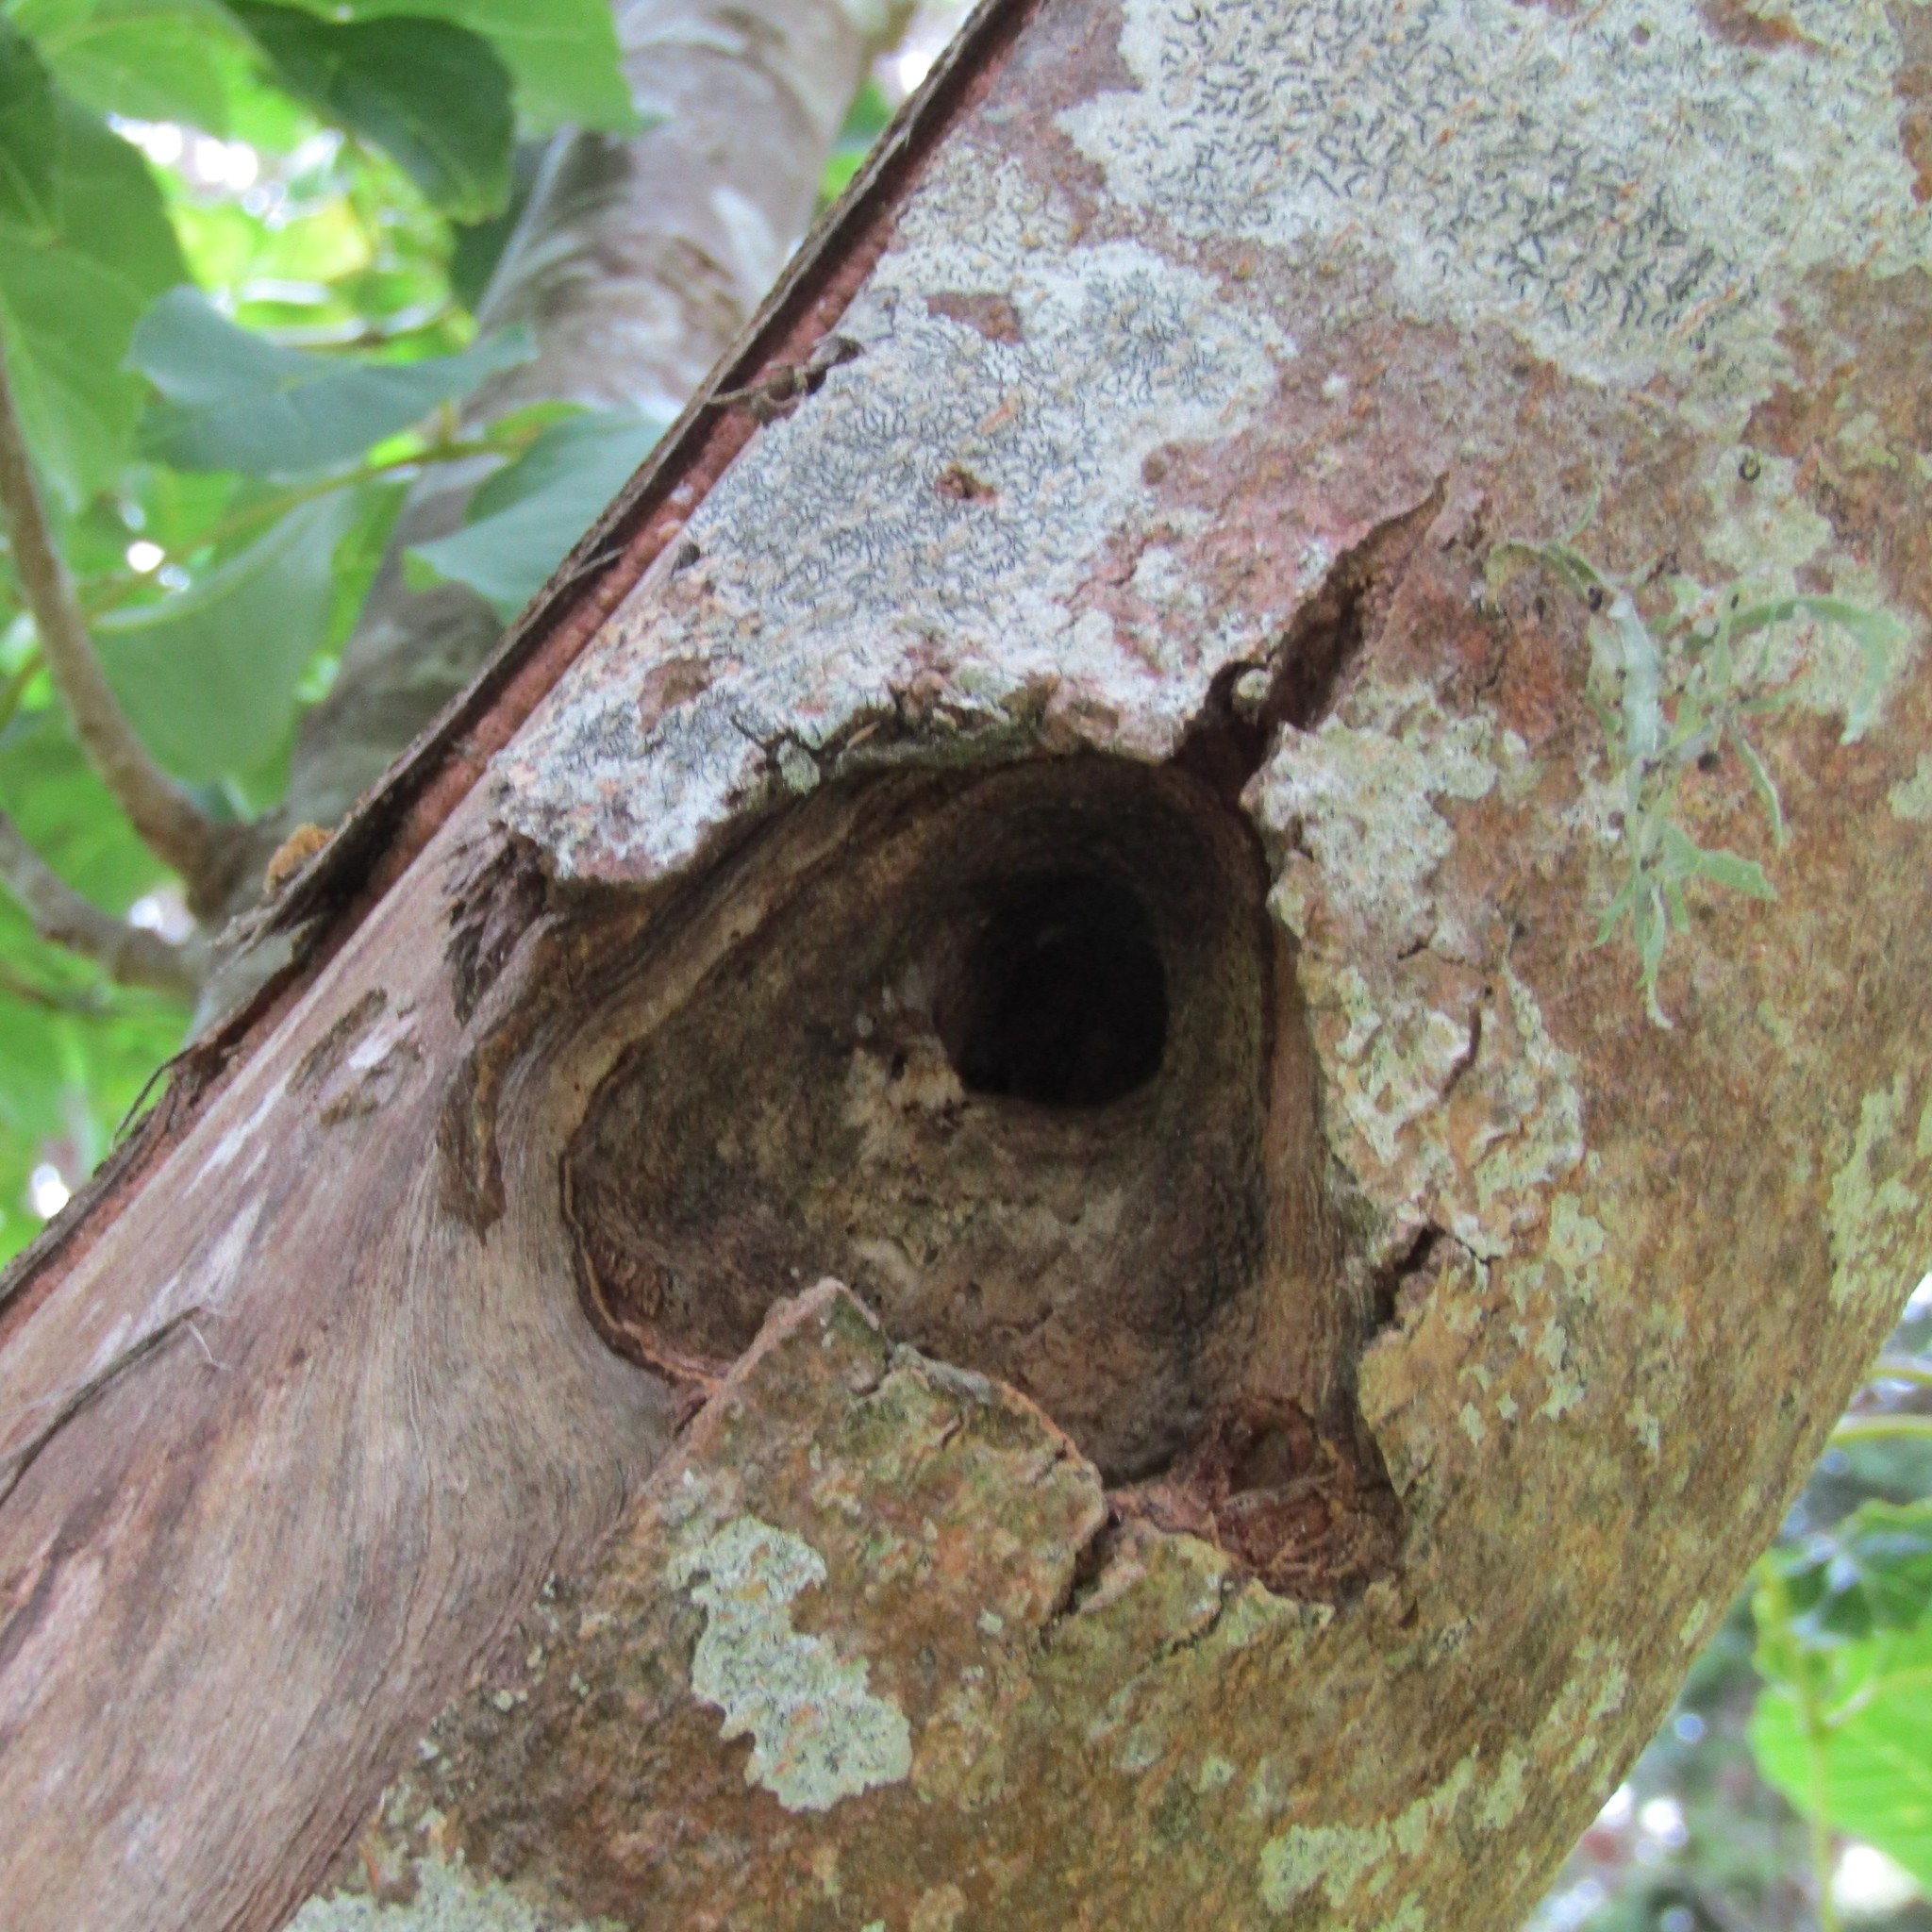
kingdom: Animalia
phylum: Arthropoda
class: Insecta
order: Lepidoptera
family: Hepialidae
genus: Aenetus
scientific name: Aenetus virescens
